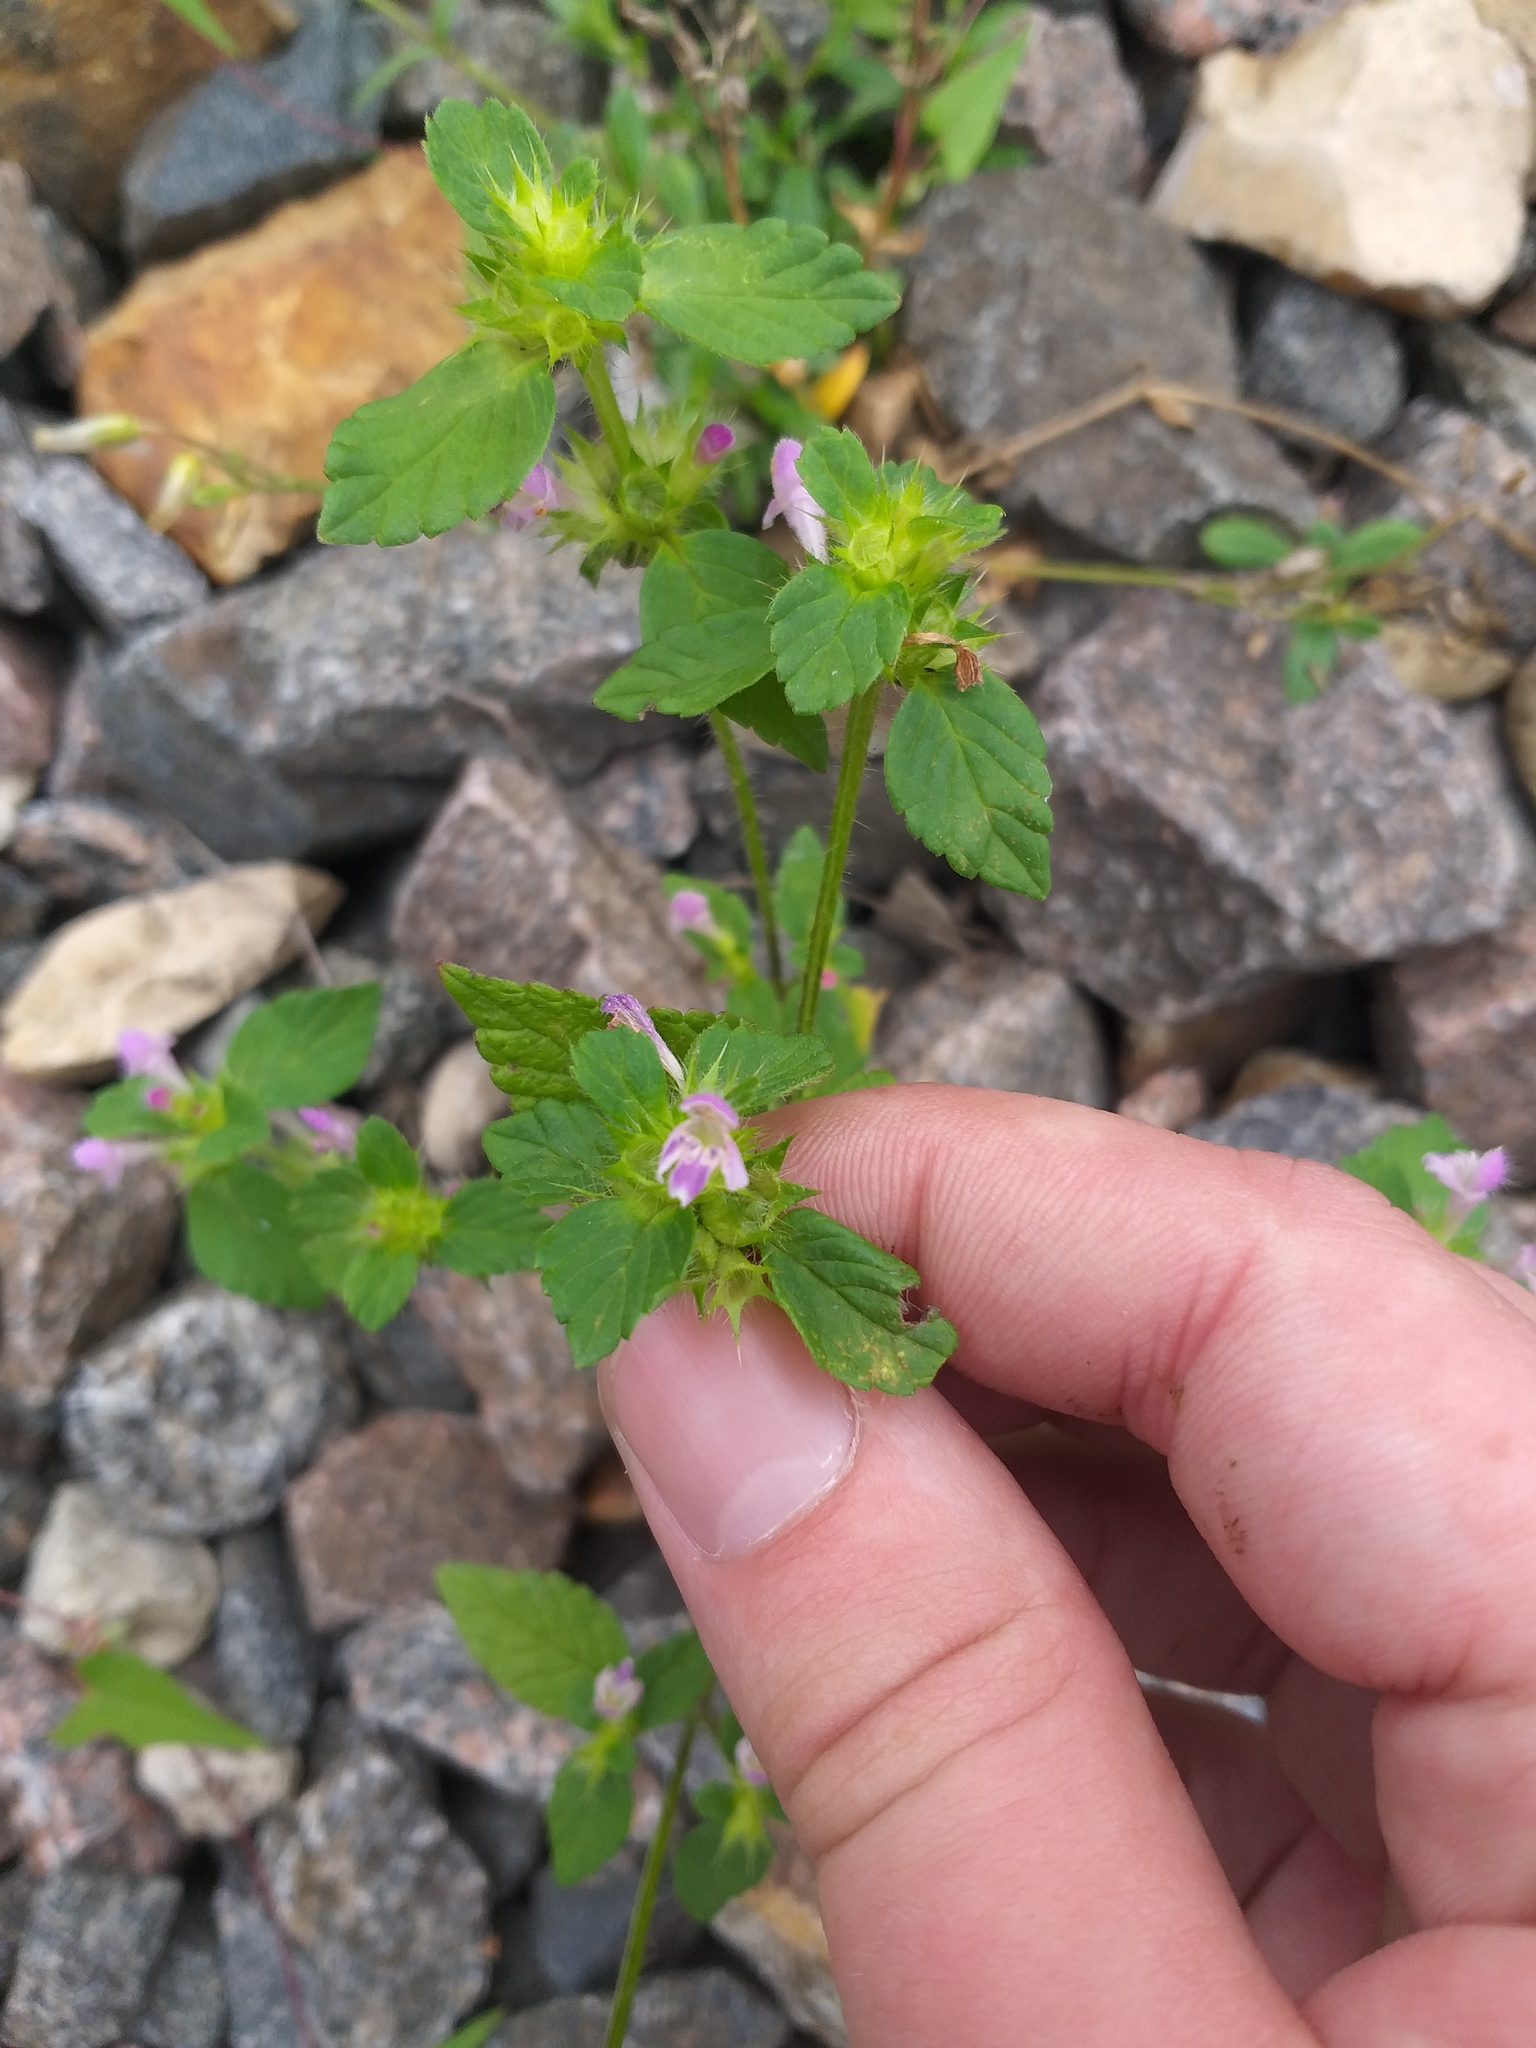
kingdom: Plantae
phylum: Tracheophyta
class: Magnoliopsida
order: Lamiales
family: Lamiaceae
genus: Galeopsis
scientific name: Galeopsis bifida
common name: Bifid hemp-nettle
